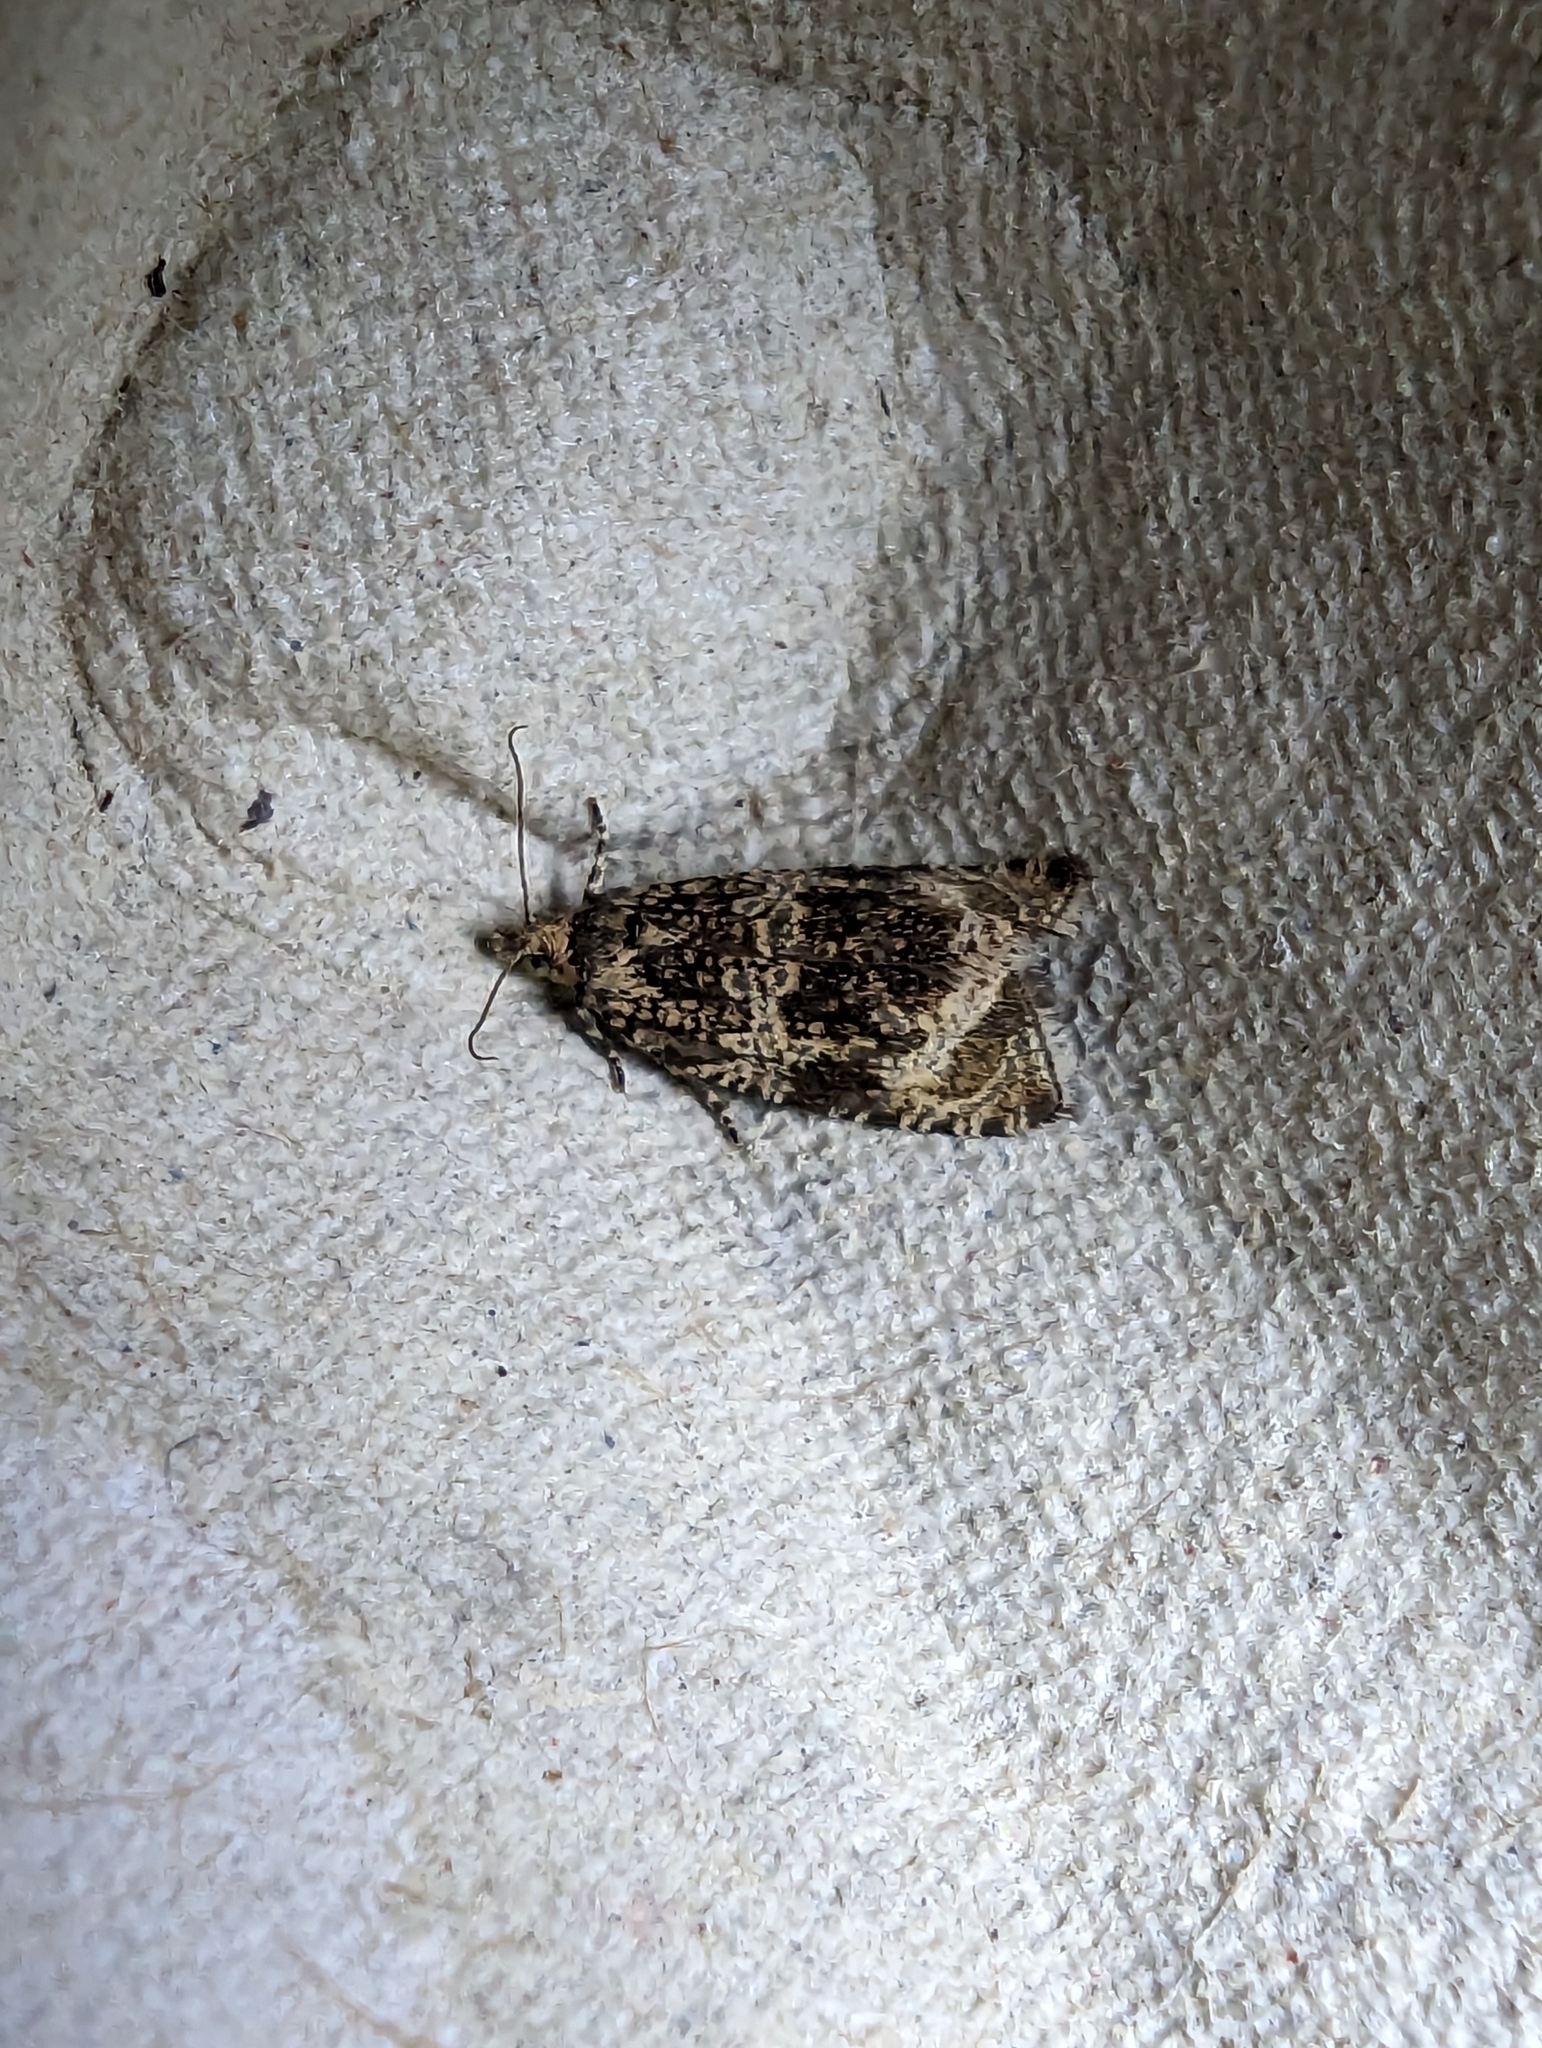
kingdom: Animalia
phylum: Arthropoda
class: Insecta
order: Lepidoptera
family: Tortricidae
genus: Syricoris
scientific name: Syricoris lacunana
